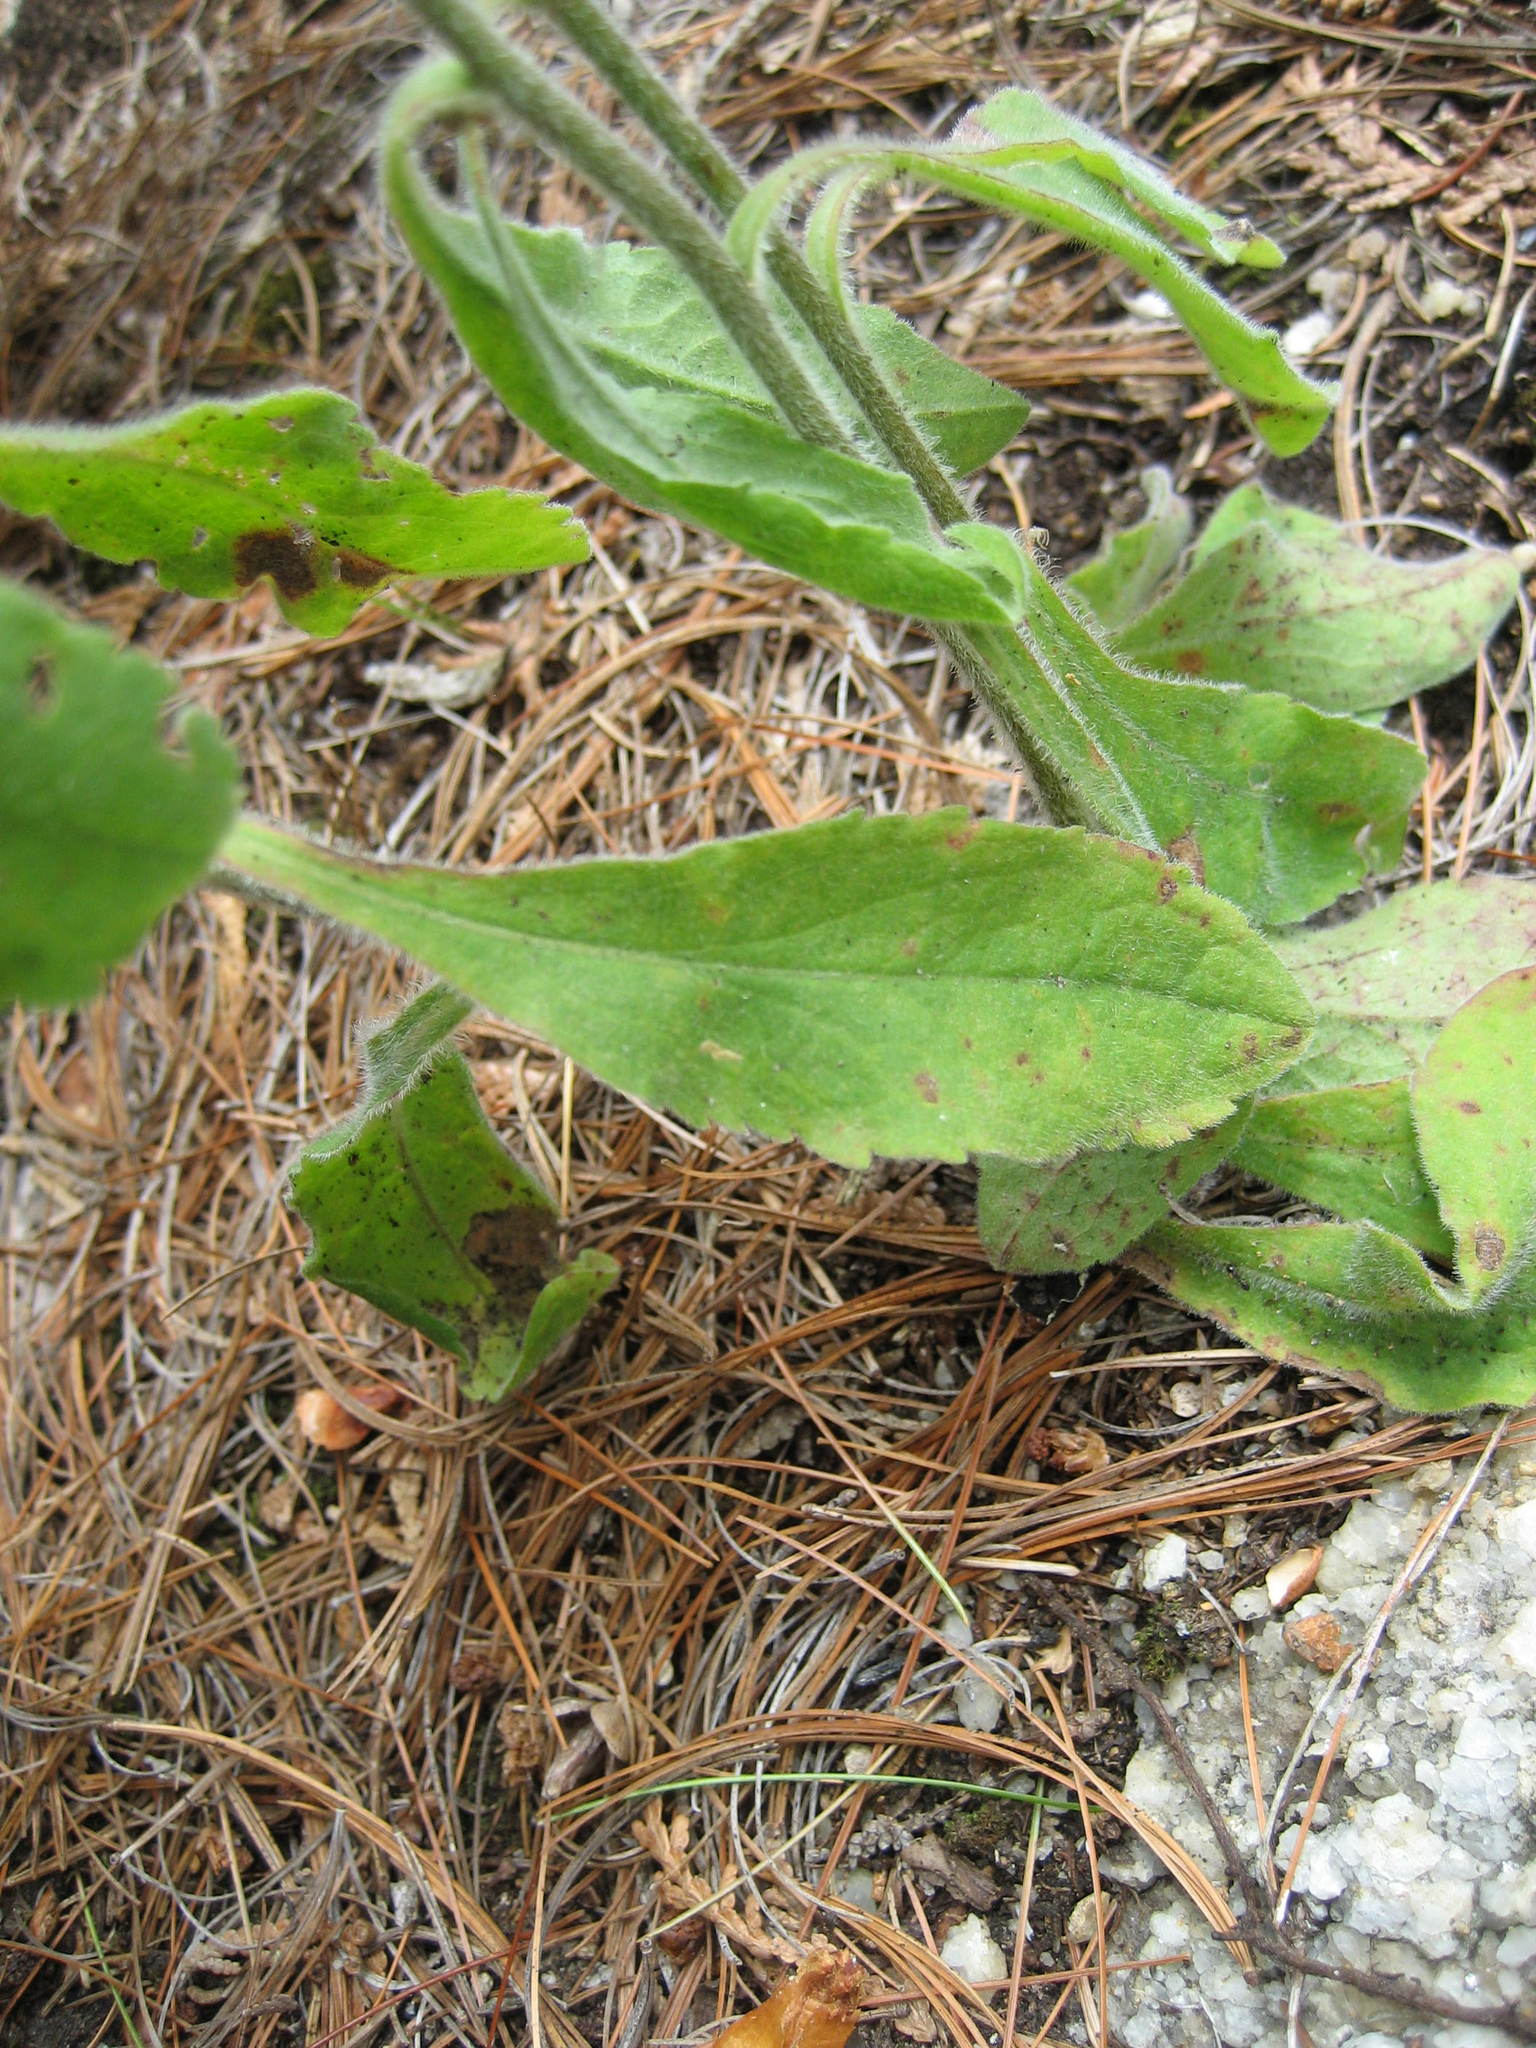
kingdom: Plantae
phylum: Tracheophyta
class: Magnoliopsida
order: Asterales
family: Asteraceae
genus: Solidago
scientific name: Solidago hispida
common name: Hairy goldenrod
